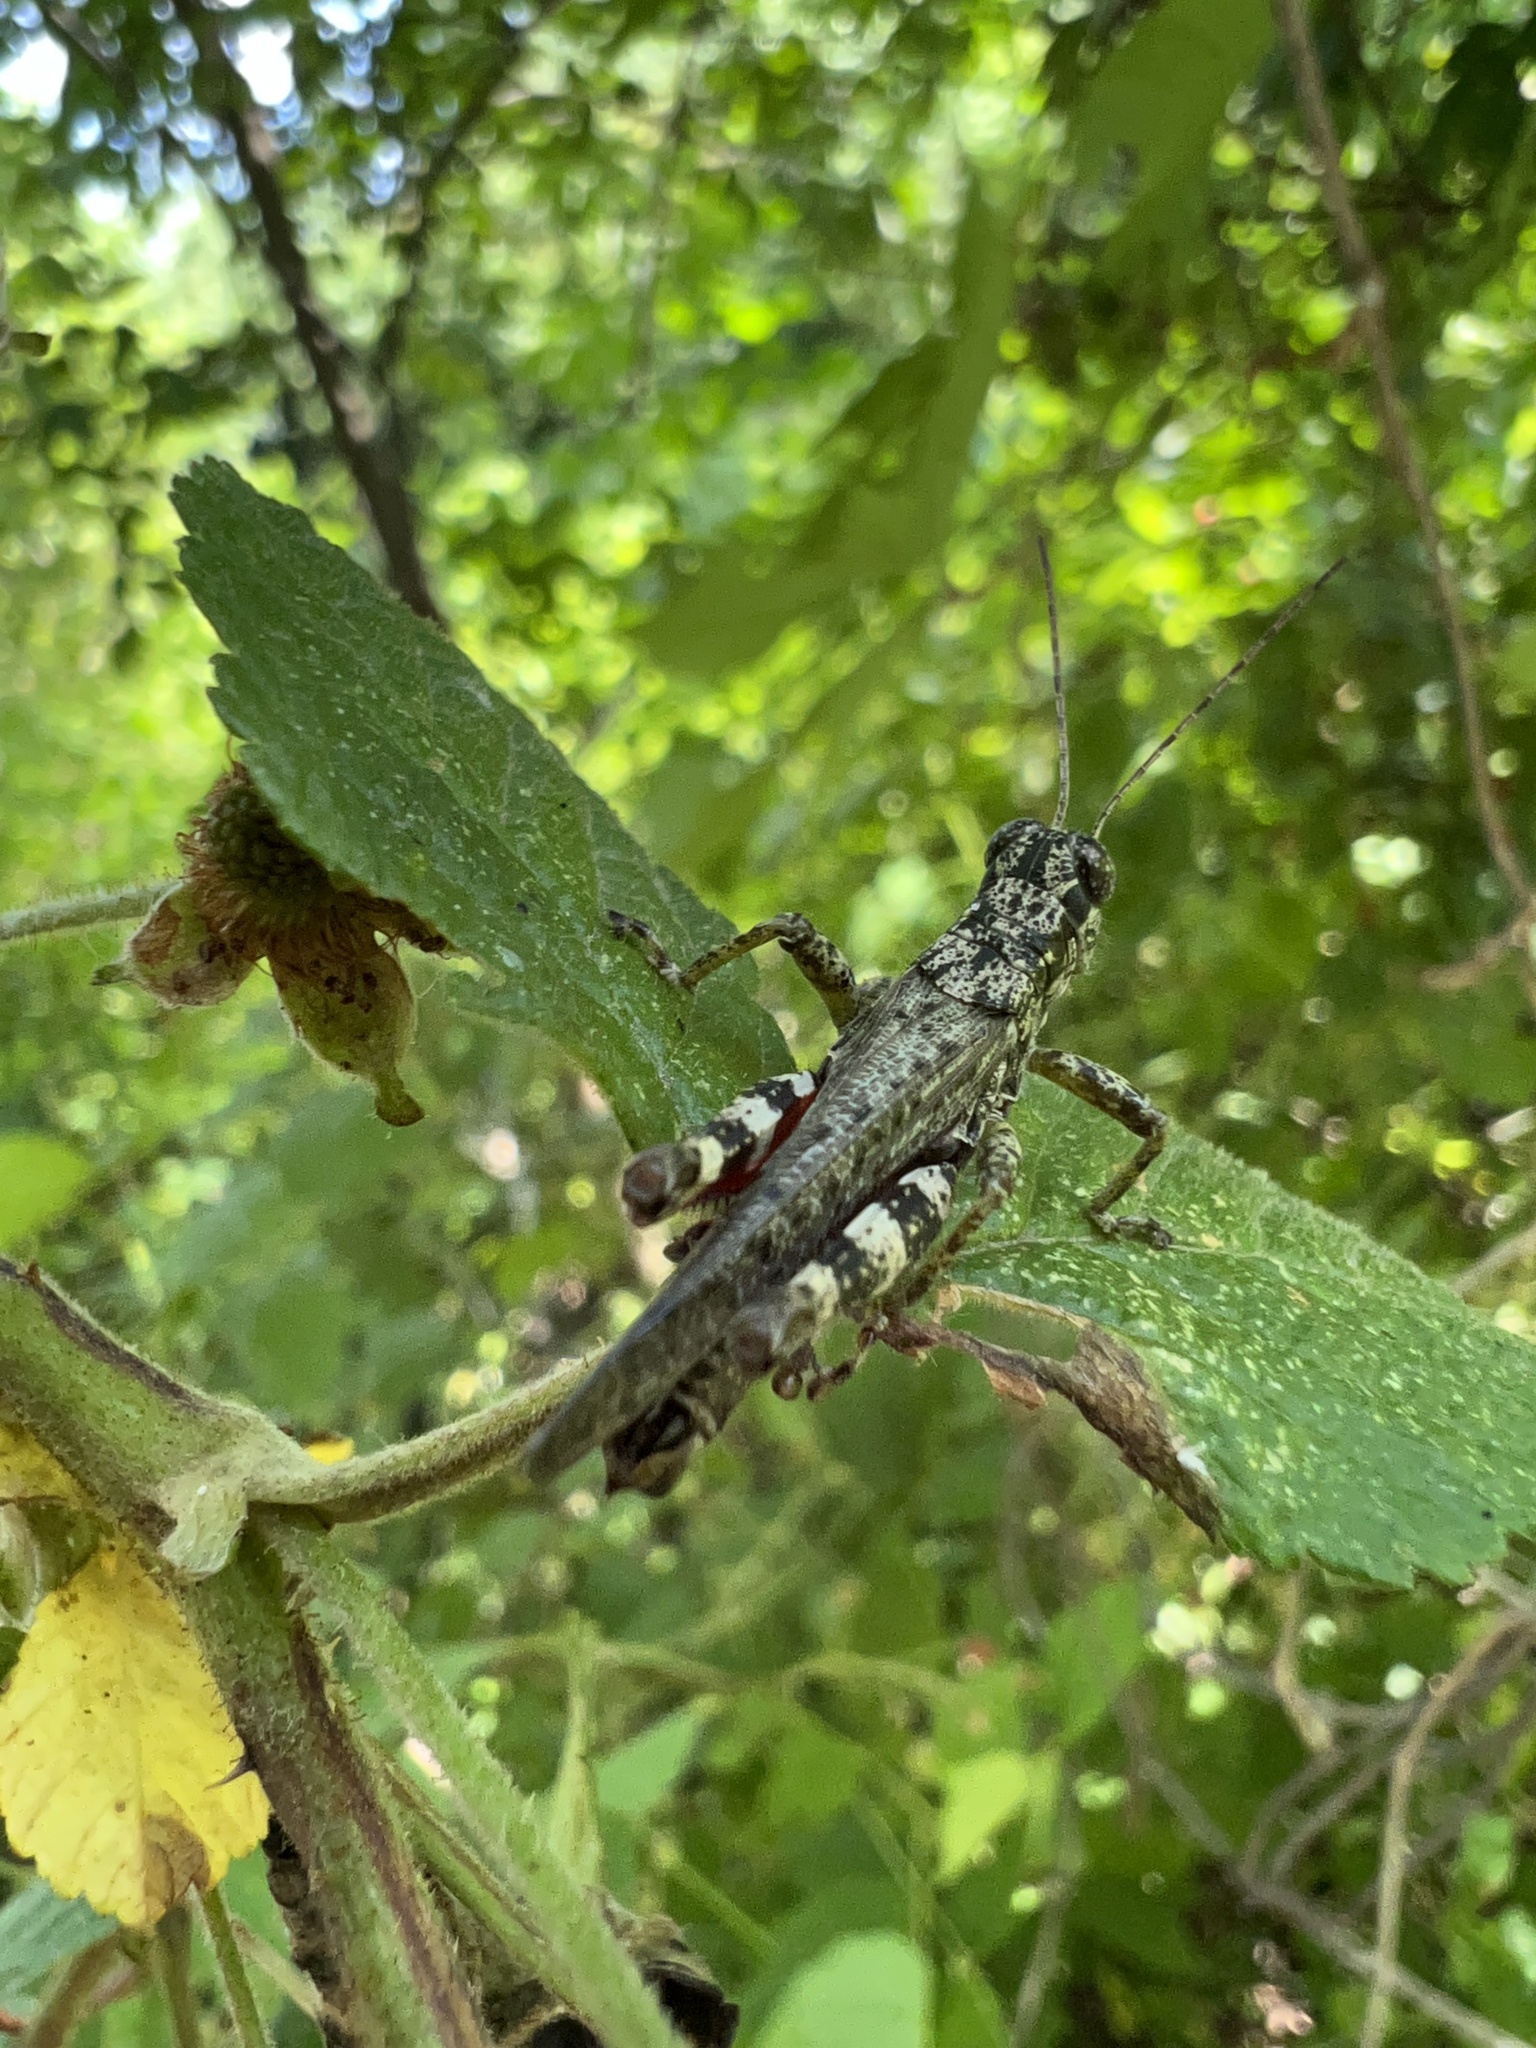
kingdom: Animalia
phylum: Arthropoda
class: Insecta
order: Orthoptera
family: Acrididae
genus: Melanoplus
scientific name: Melanoplus punctulatus
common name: Pine-tree spur-throat grasshopper
